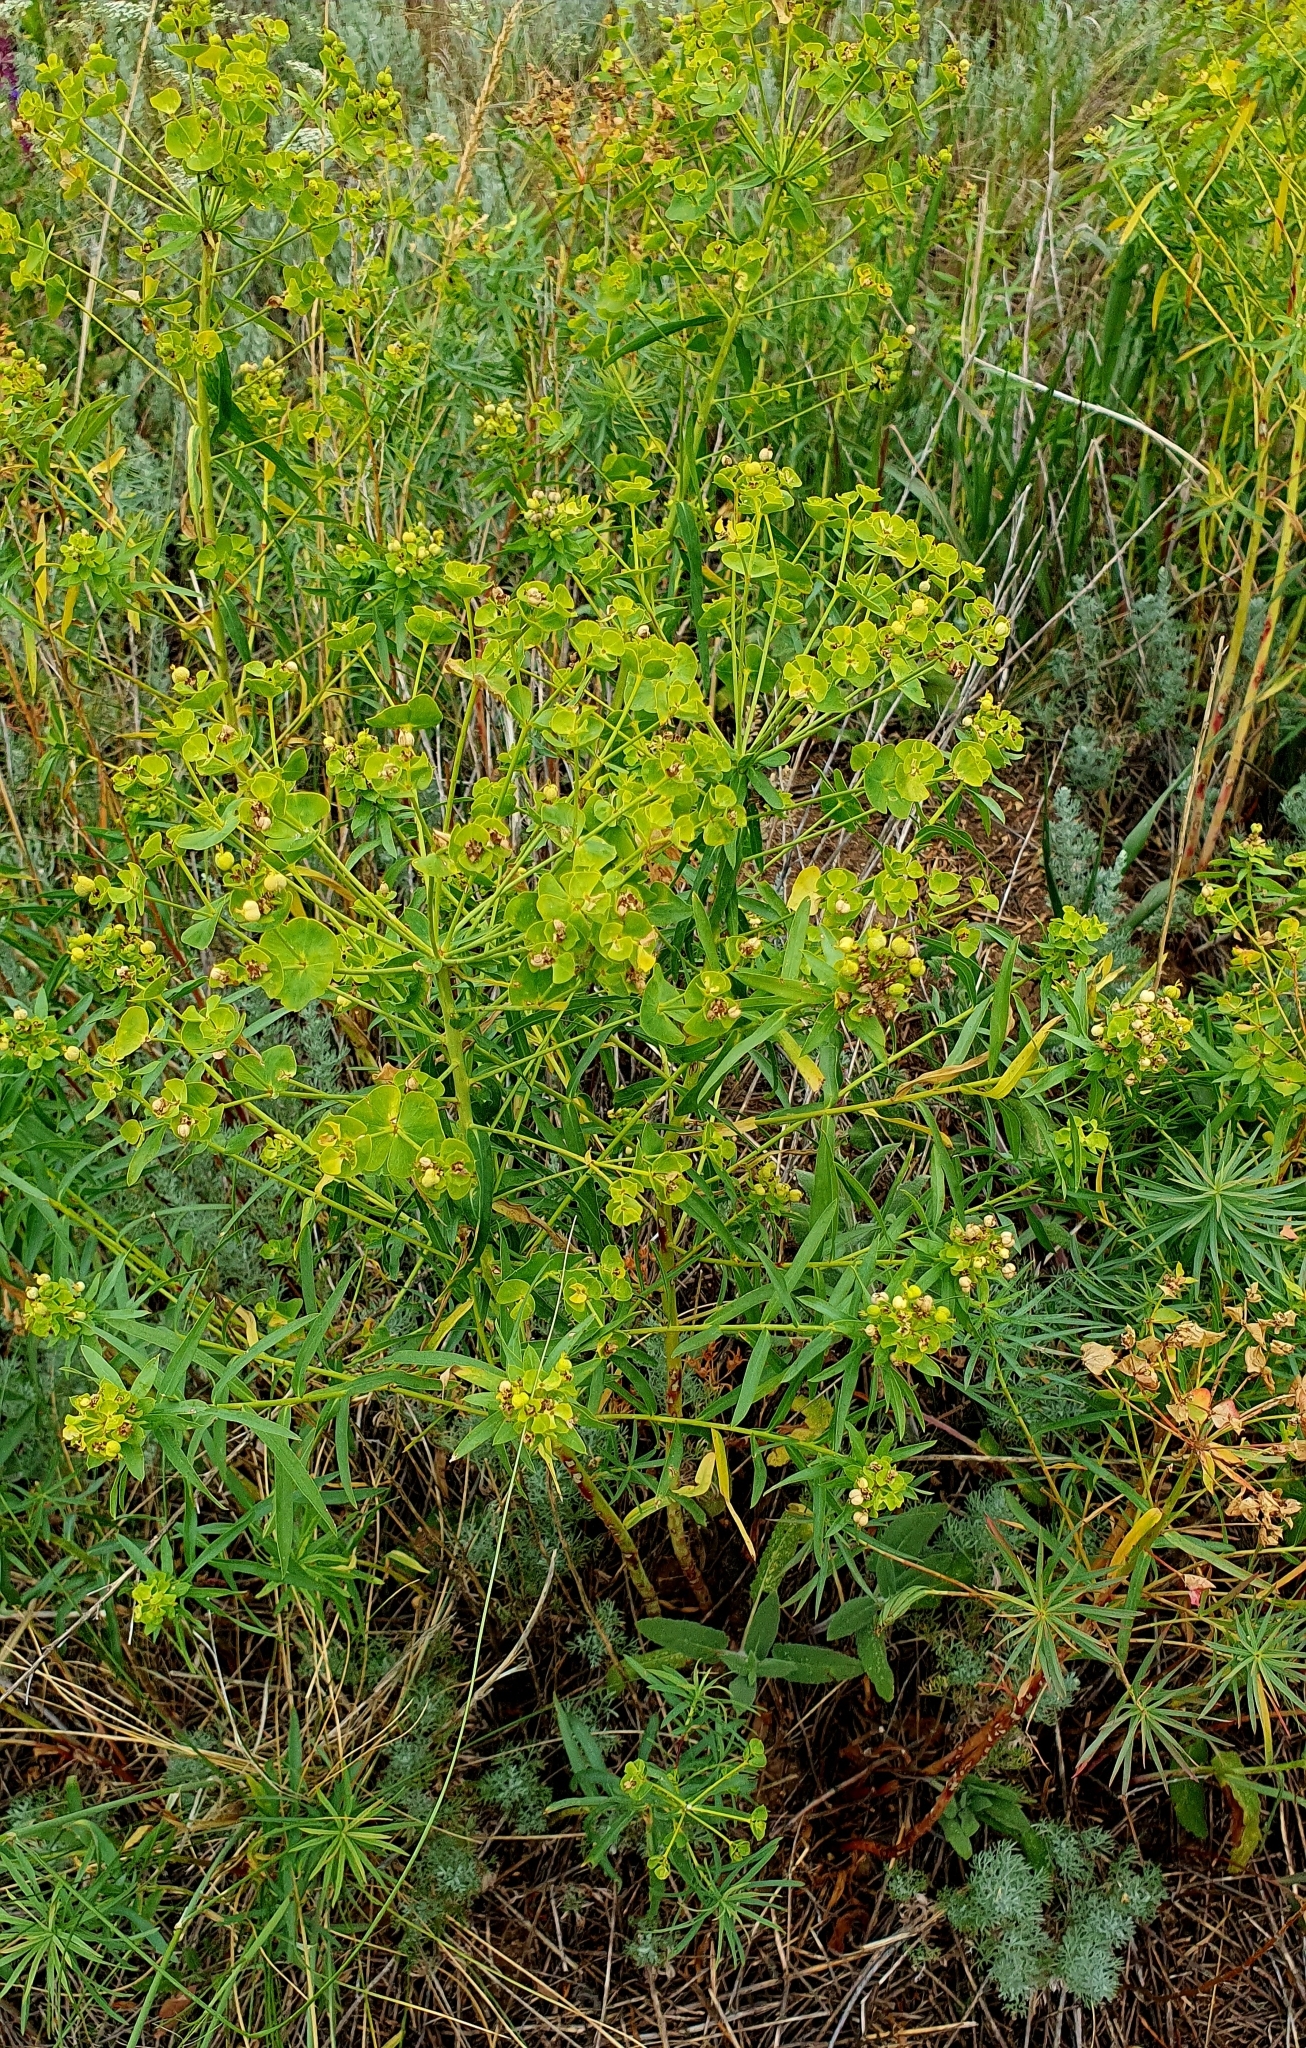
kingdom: Plantae
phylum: Tracheophyta
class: Magnoliopsida
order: Malpighiales
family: Euphorbiaceae
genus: Euphorbia
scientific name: Euphorbia virgata
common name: Leafy spurge
